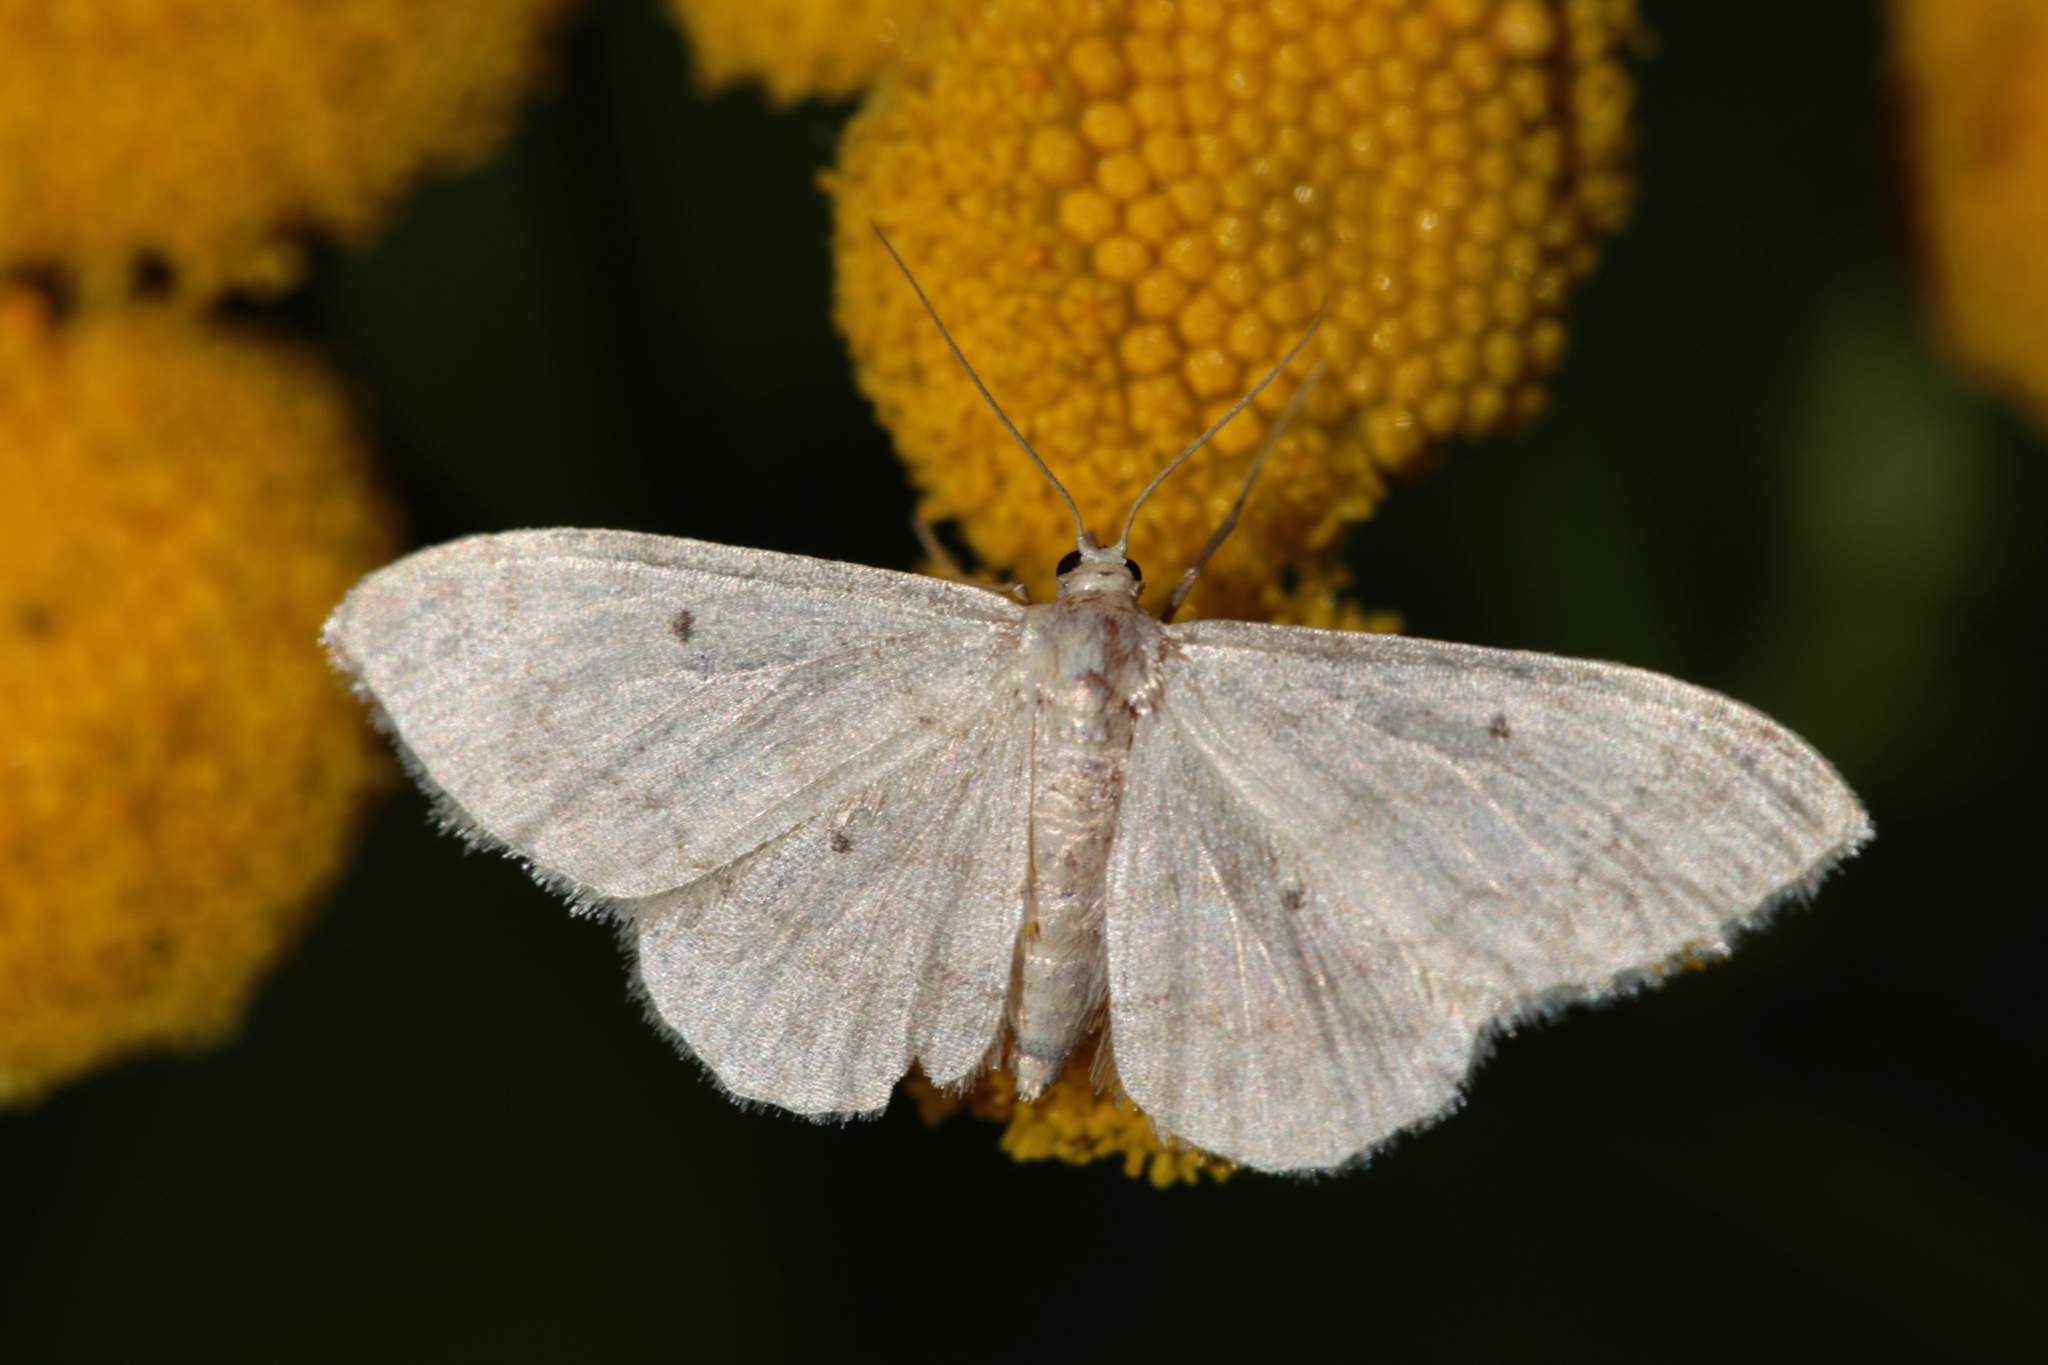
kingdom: Animalia
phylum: Arthropoda
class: Insecta
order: Lepidoptera
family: Geometridae
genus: Idaea
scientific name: Idaea biselata
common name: Small fan-footed wave
